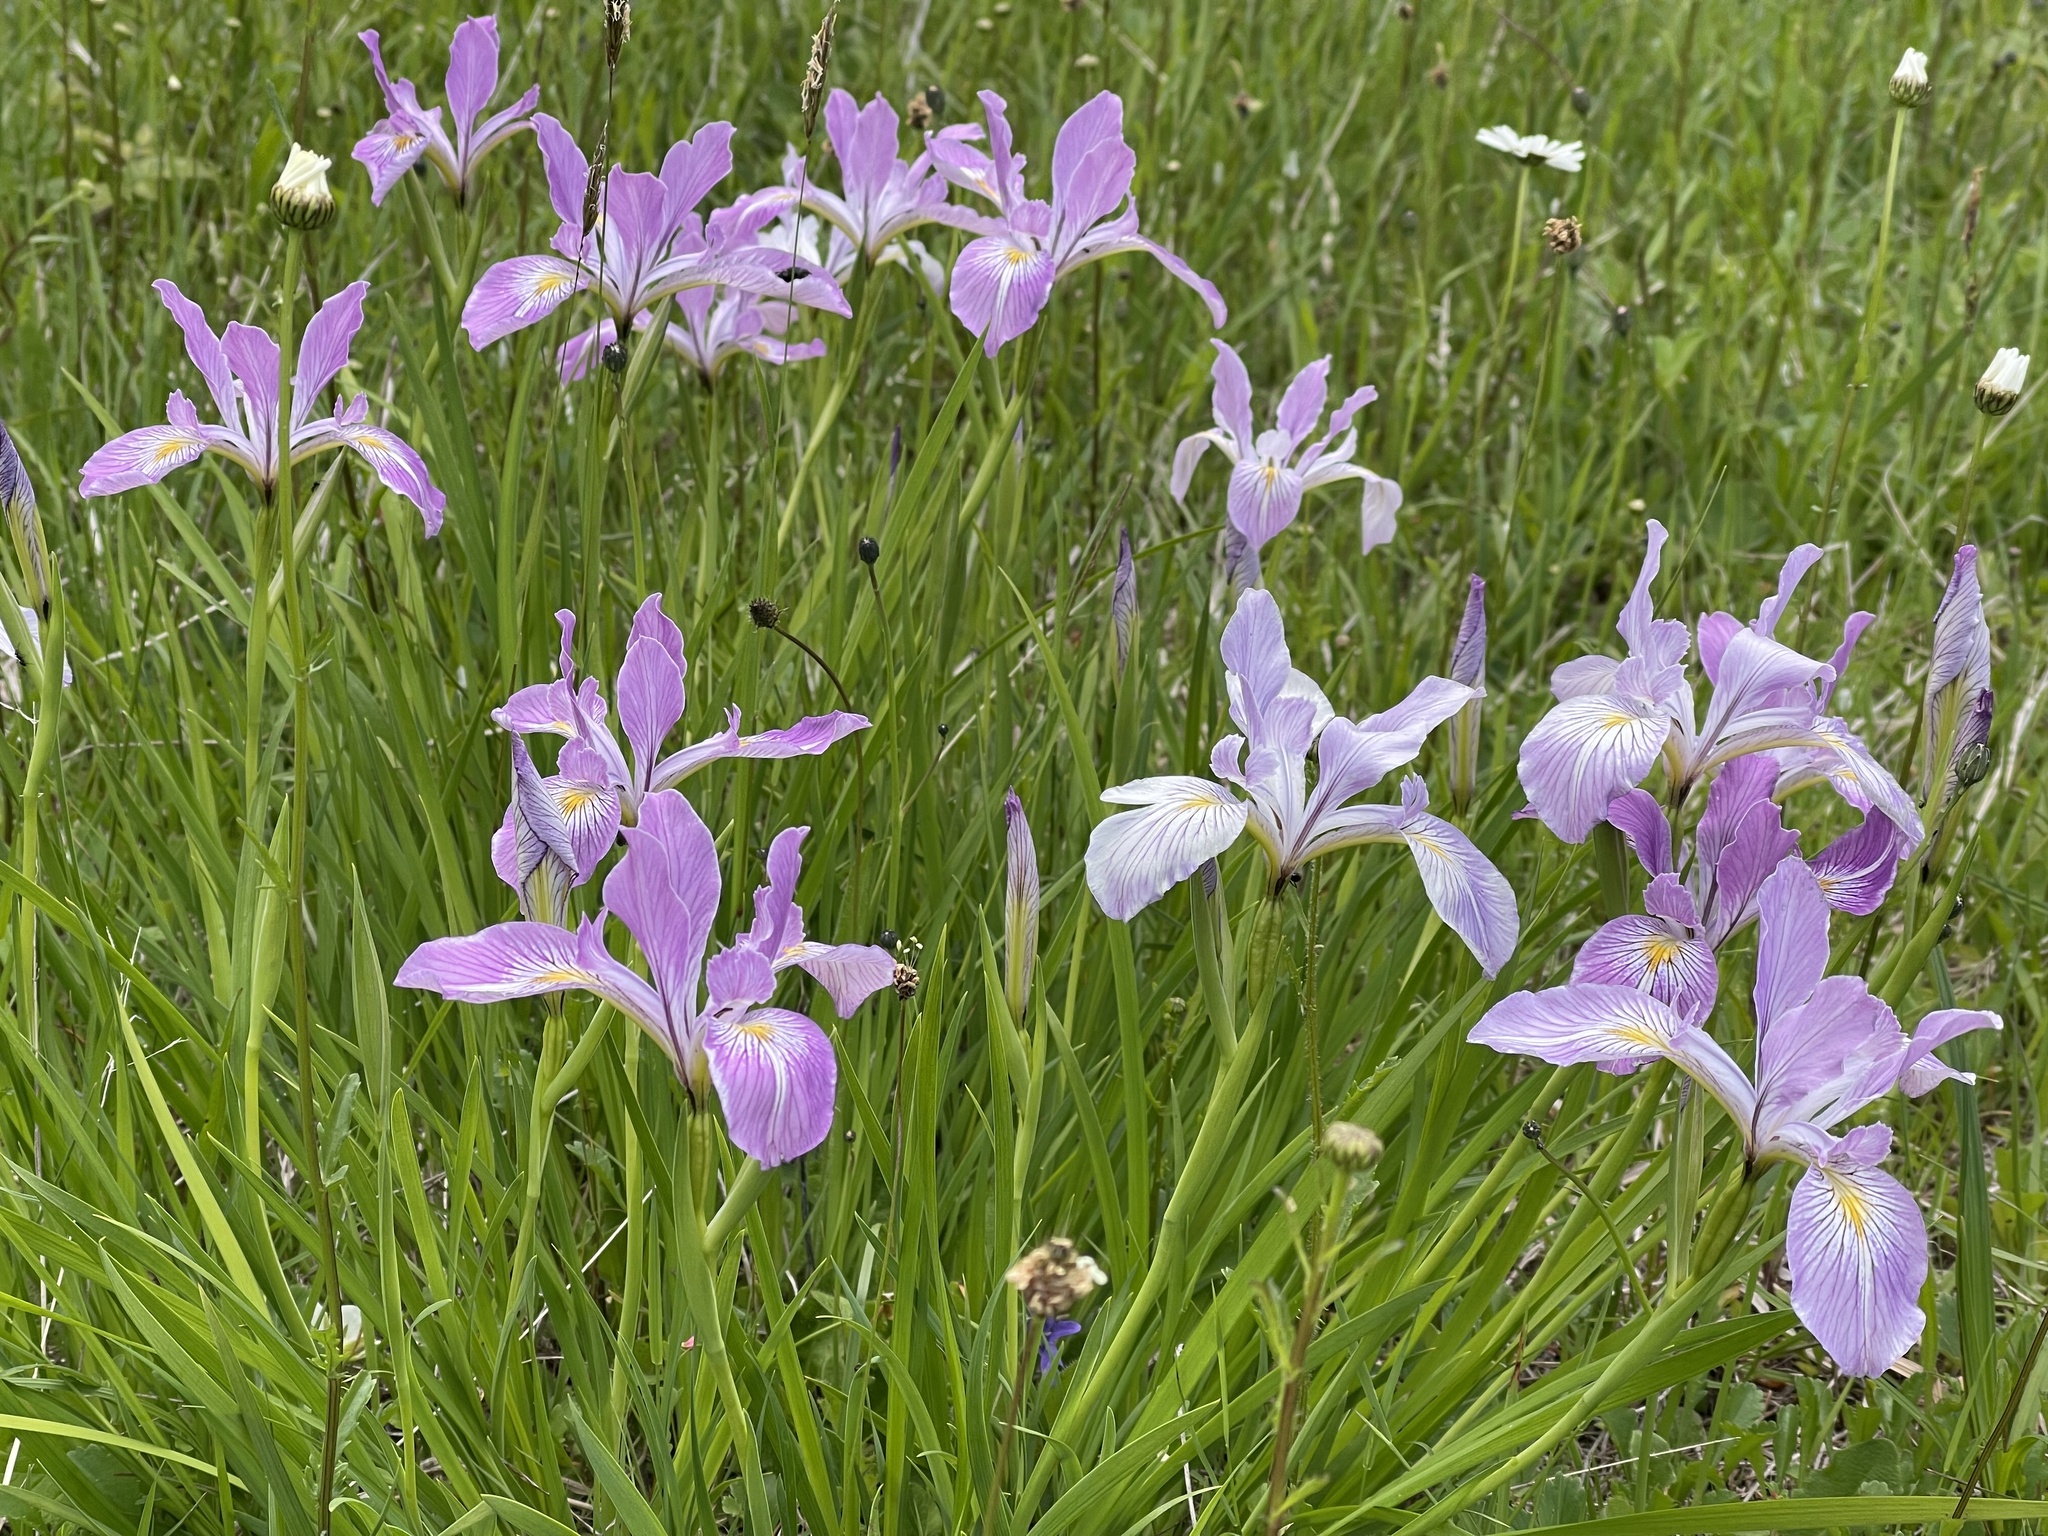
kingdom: Plantae
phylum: Tracheophyta
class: Liliopsida
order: Asparagales
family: Iridaceae
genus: Iris
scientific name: Iris tenax
